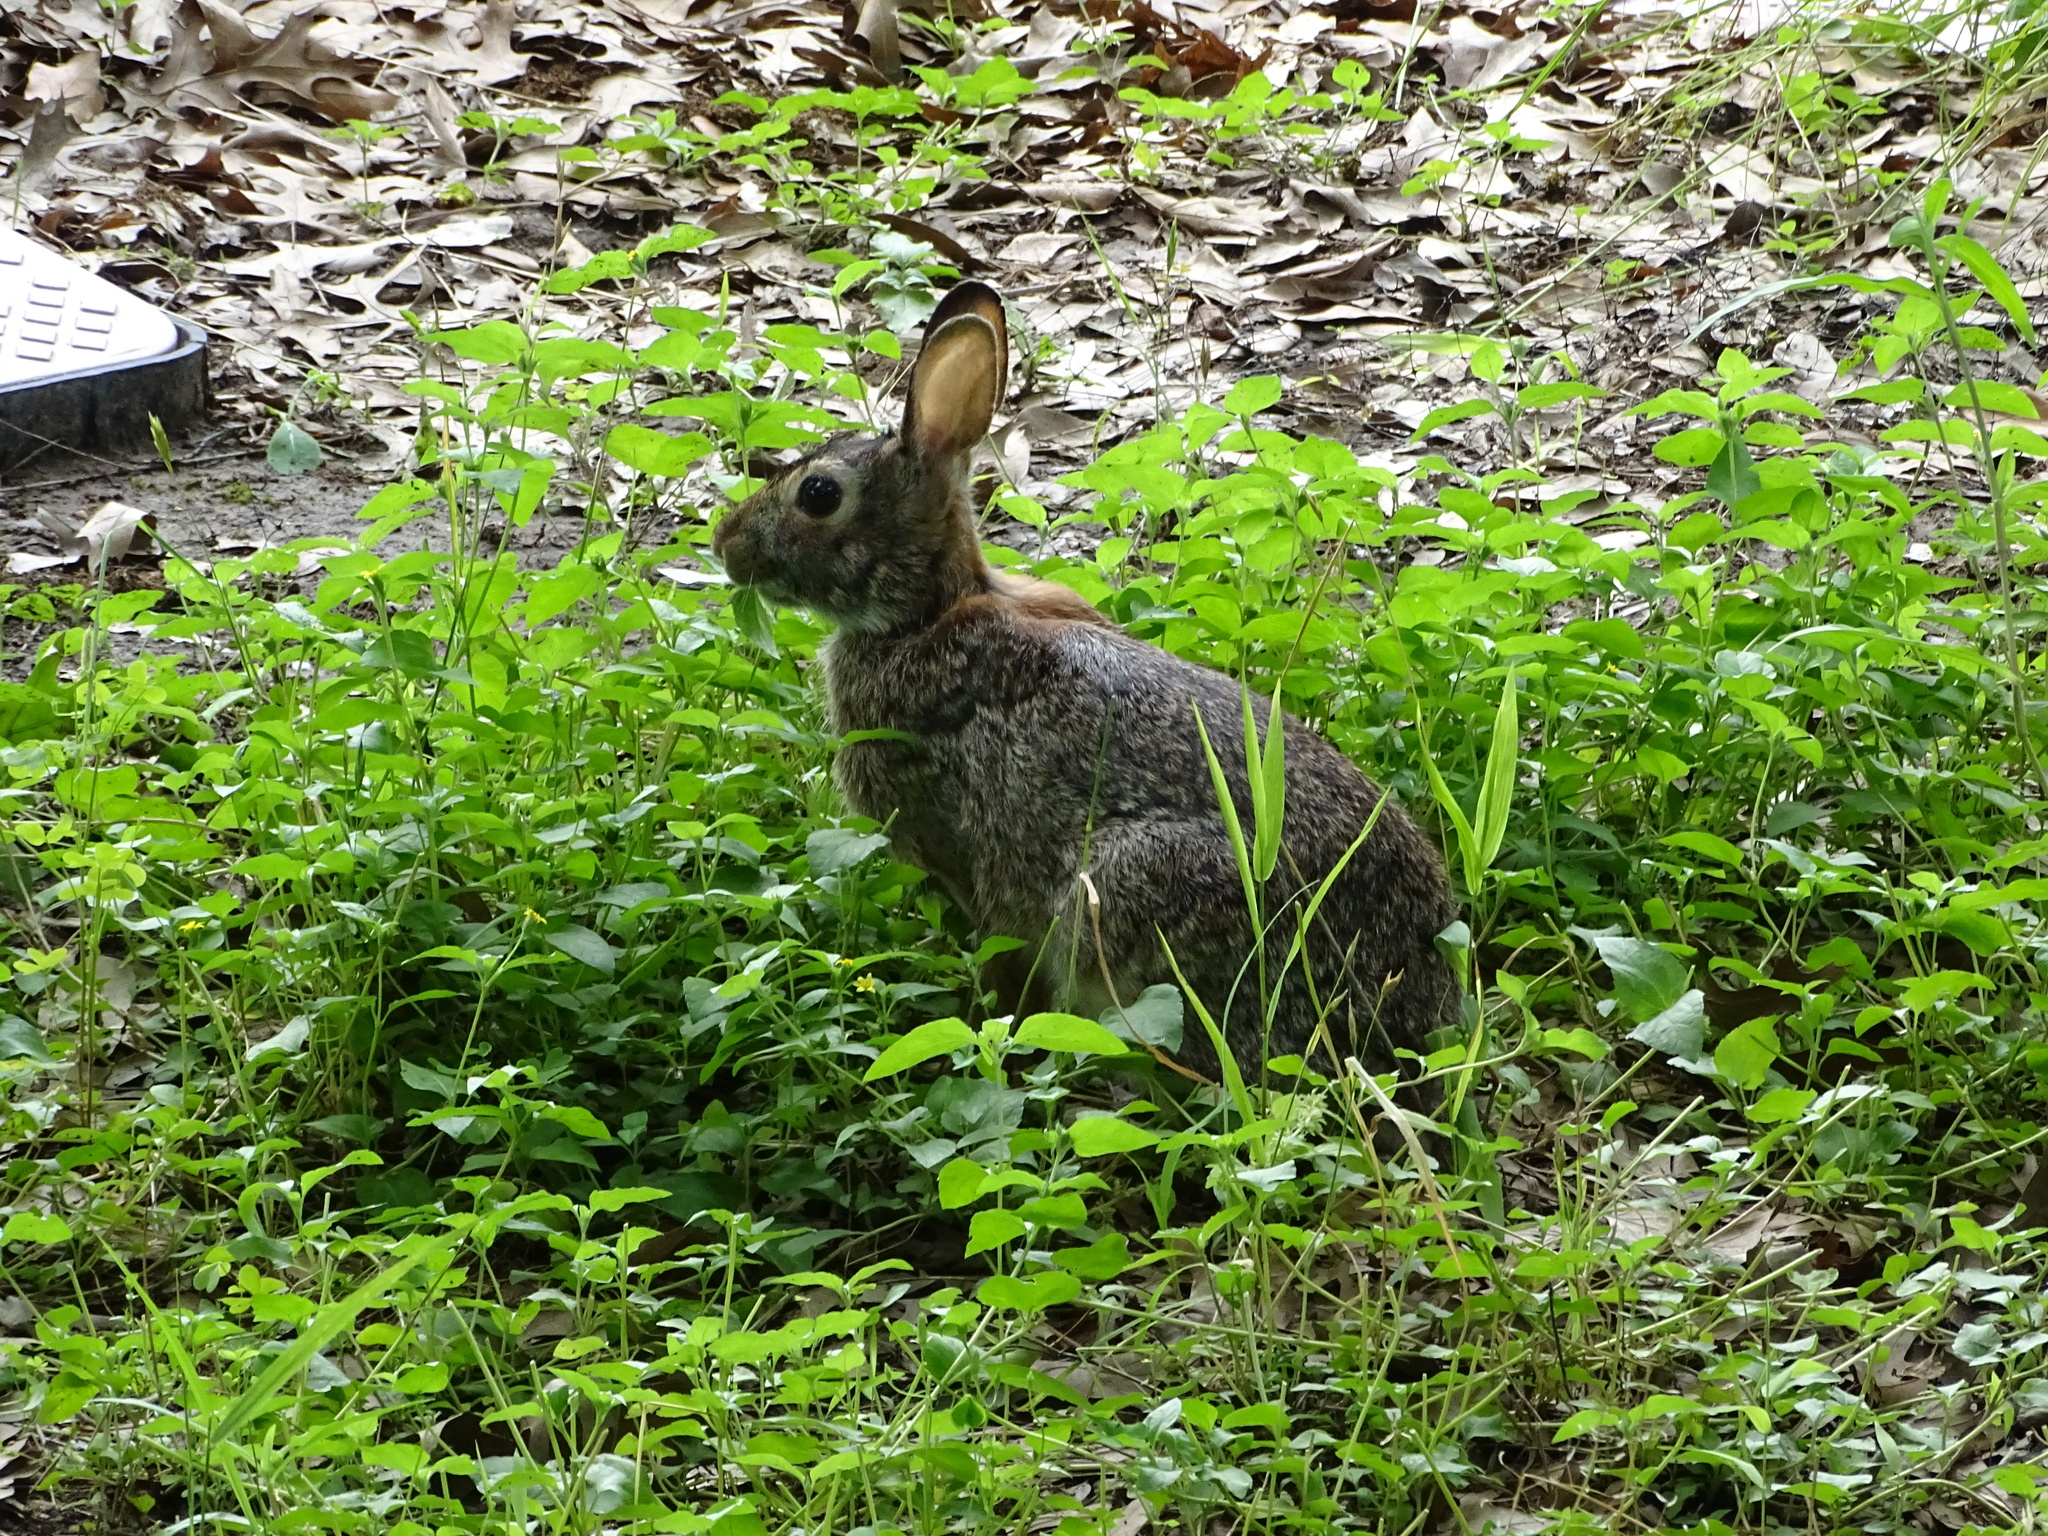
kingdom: Animalia
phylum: Chordata
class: Mammalia
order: Lagomorpha
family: Leporidae
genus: Sylvilagus
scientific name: Sylvilagus floridanus
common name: Eastern cottontail
